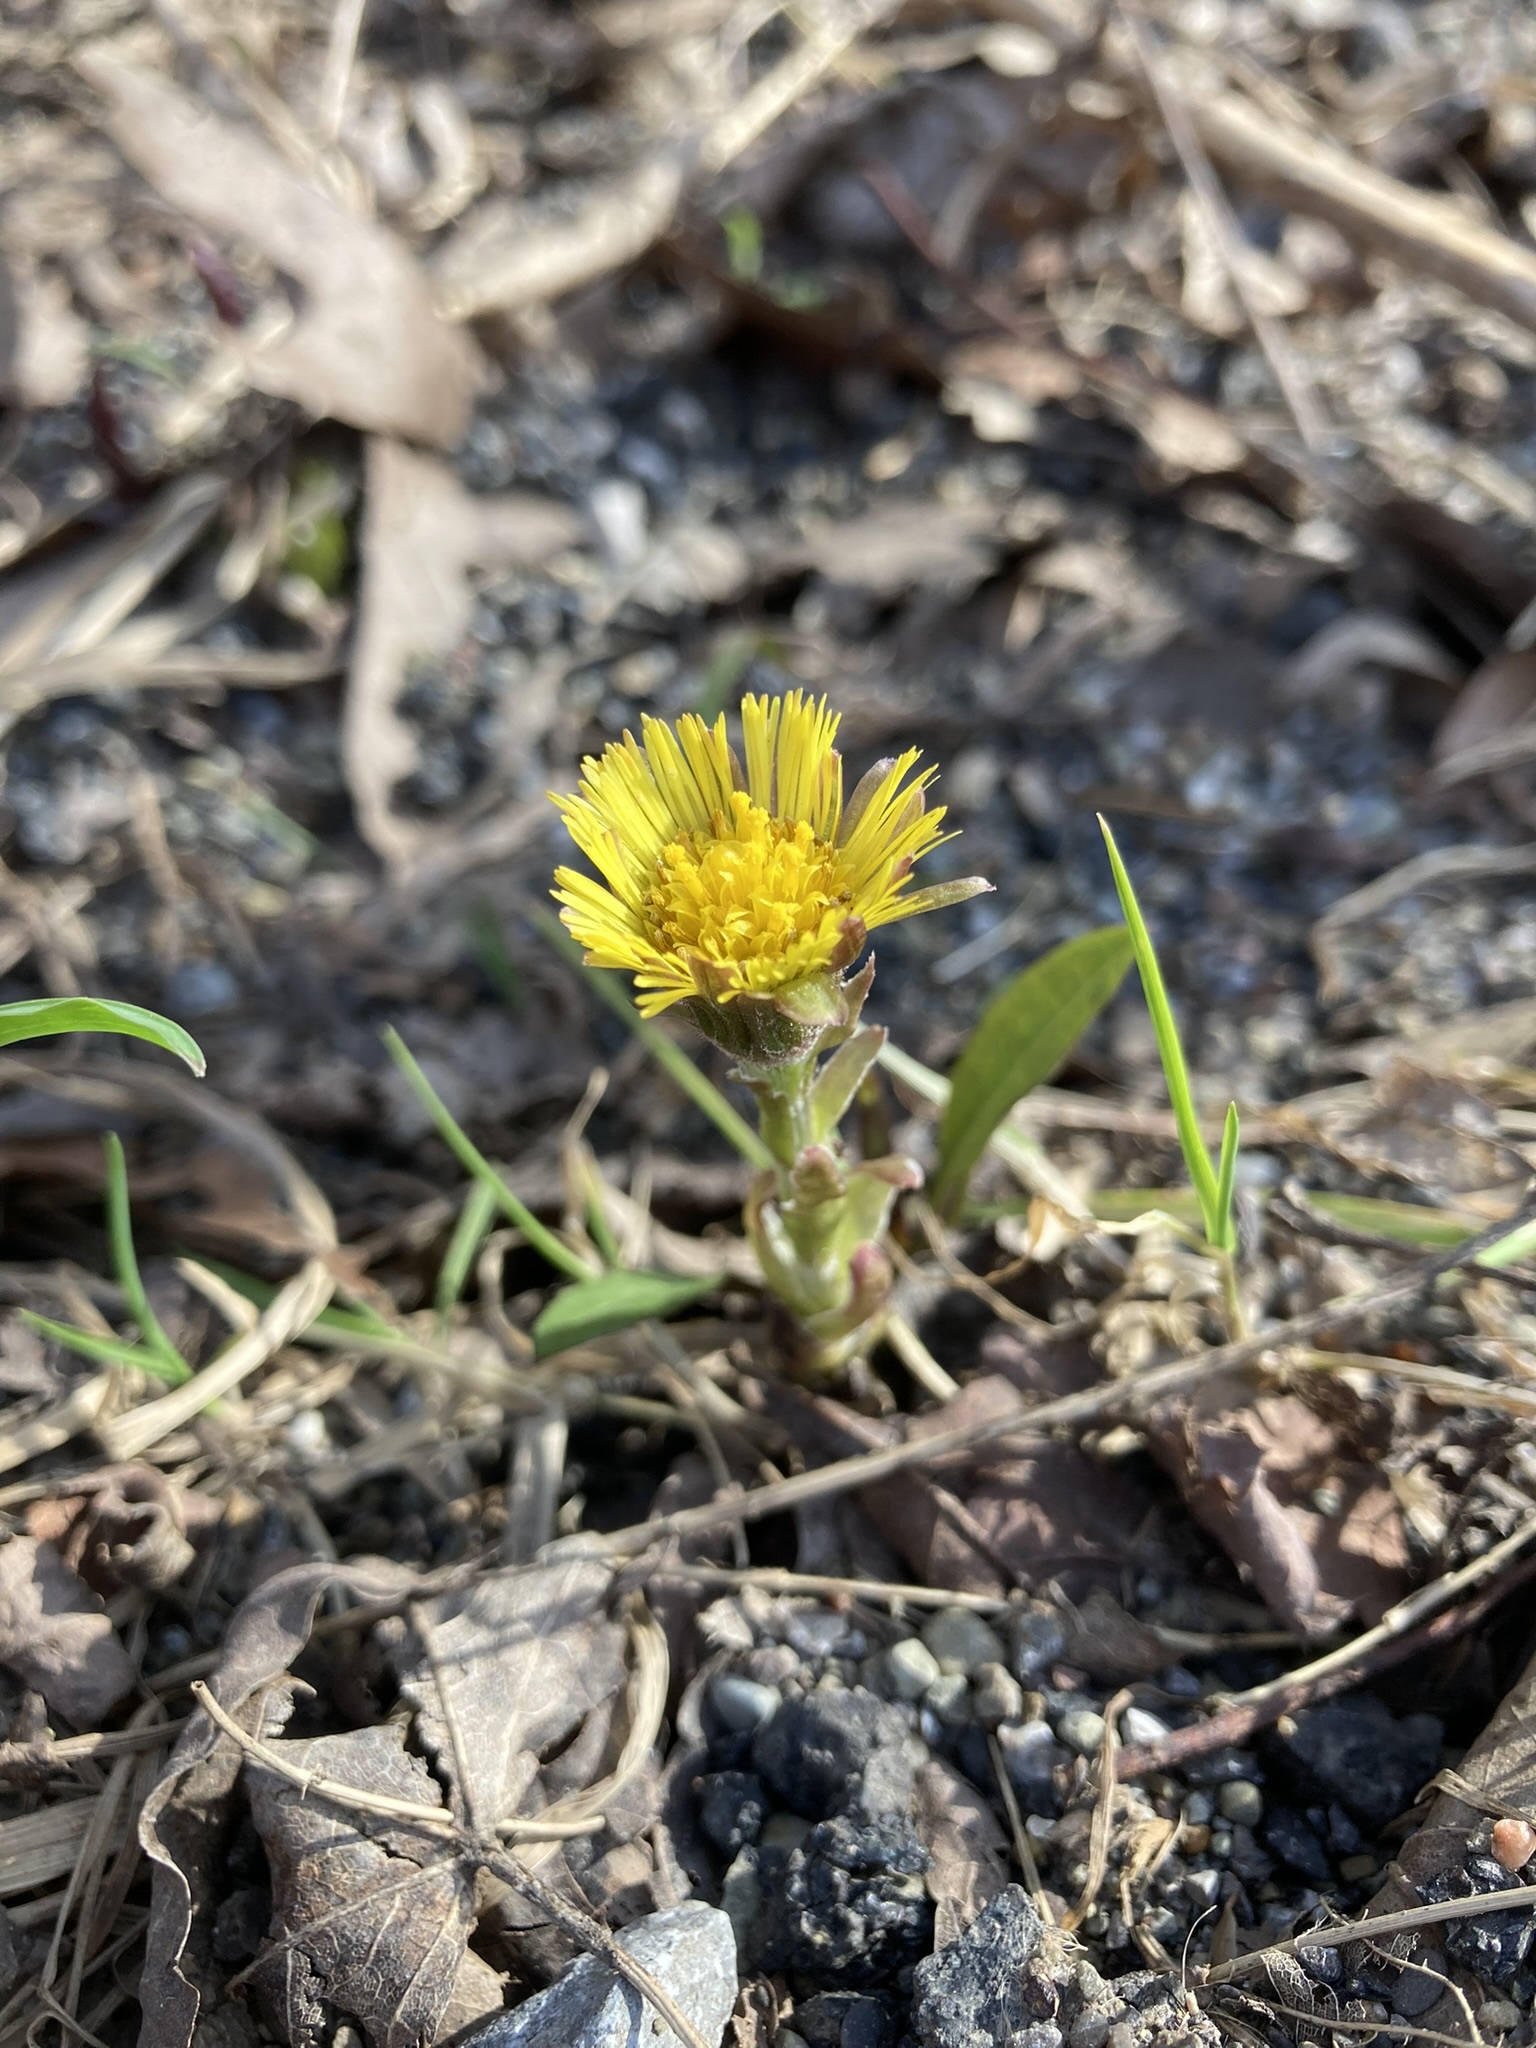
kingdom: Plantae
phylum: Tracheophyta
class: Magnoliopsida
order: Asterales
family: Asteraceae
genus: Tussilago
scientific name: Tussilago farfara
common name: Coltsfoot
